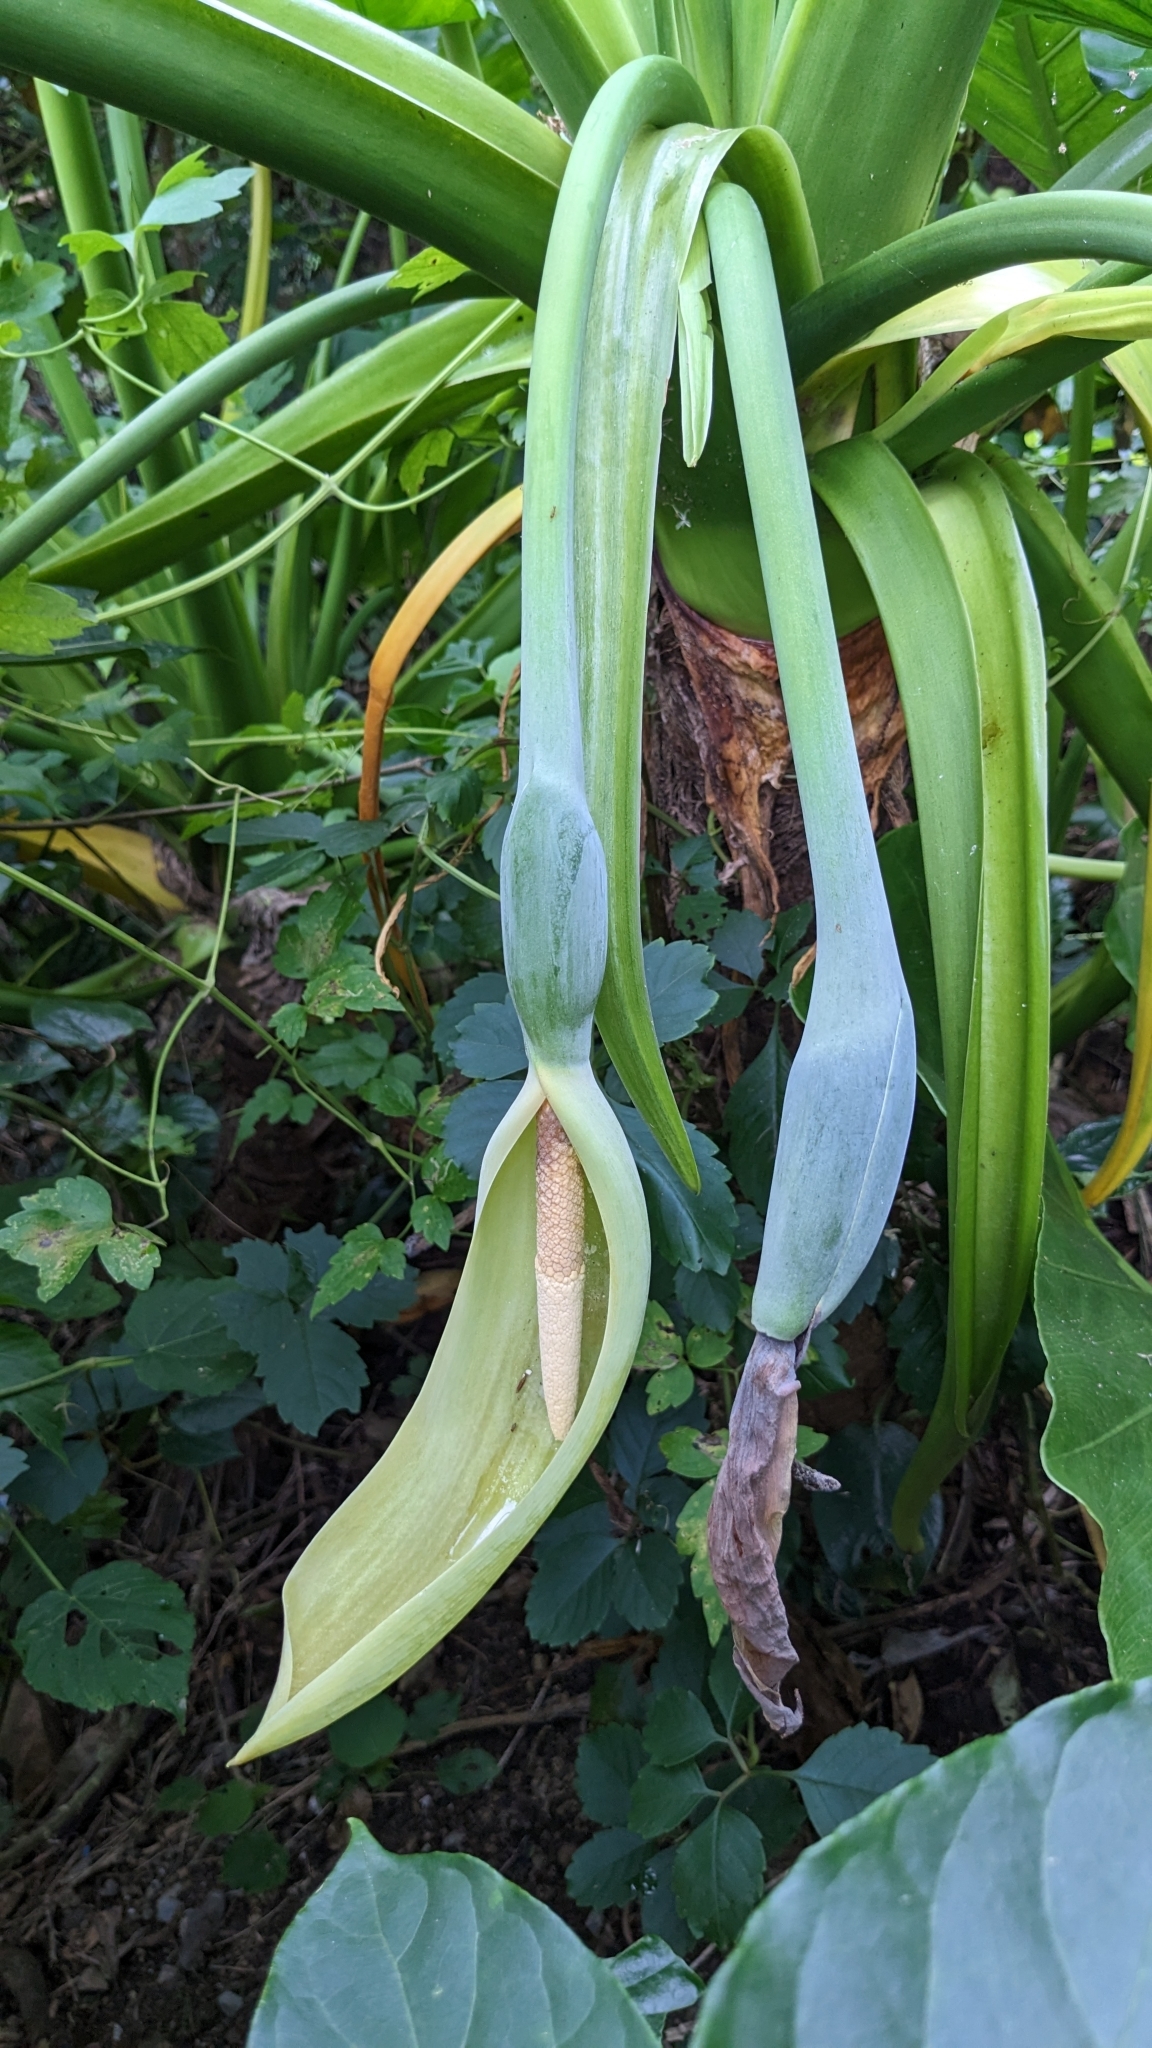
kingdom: Plantae
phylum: Tracheophyta
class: Liliopsida
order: Alismatales
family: Araceae
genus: Alocasia
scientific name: Alocasia odora
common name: Asian taro
